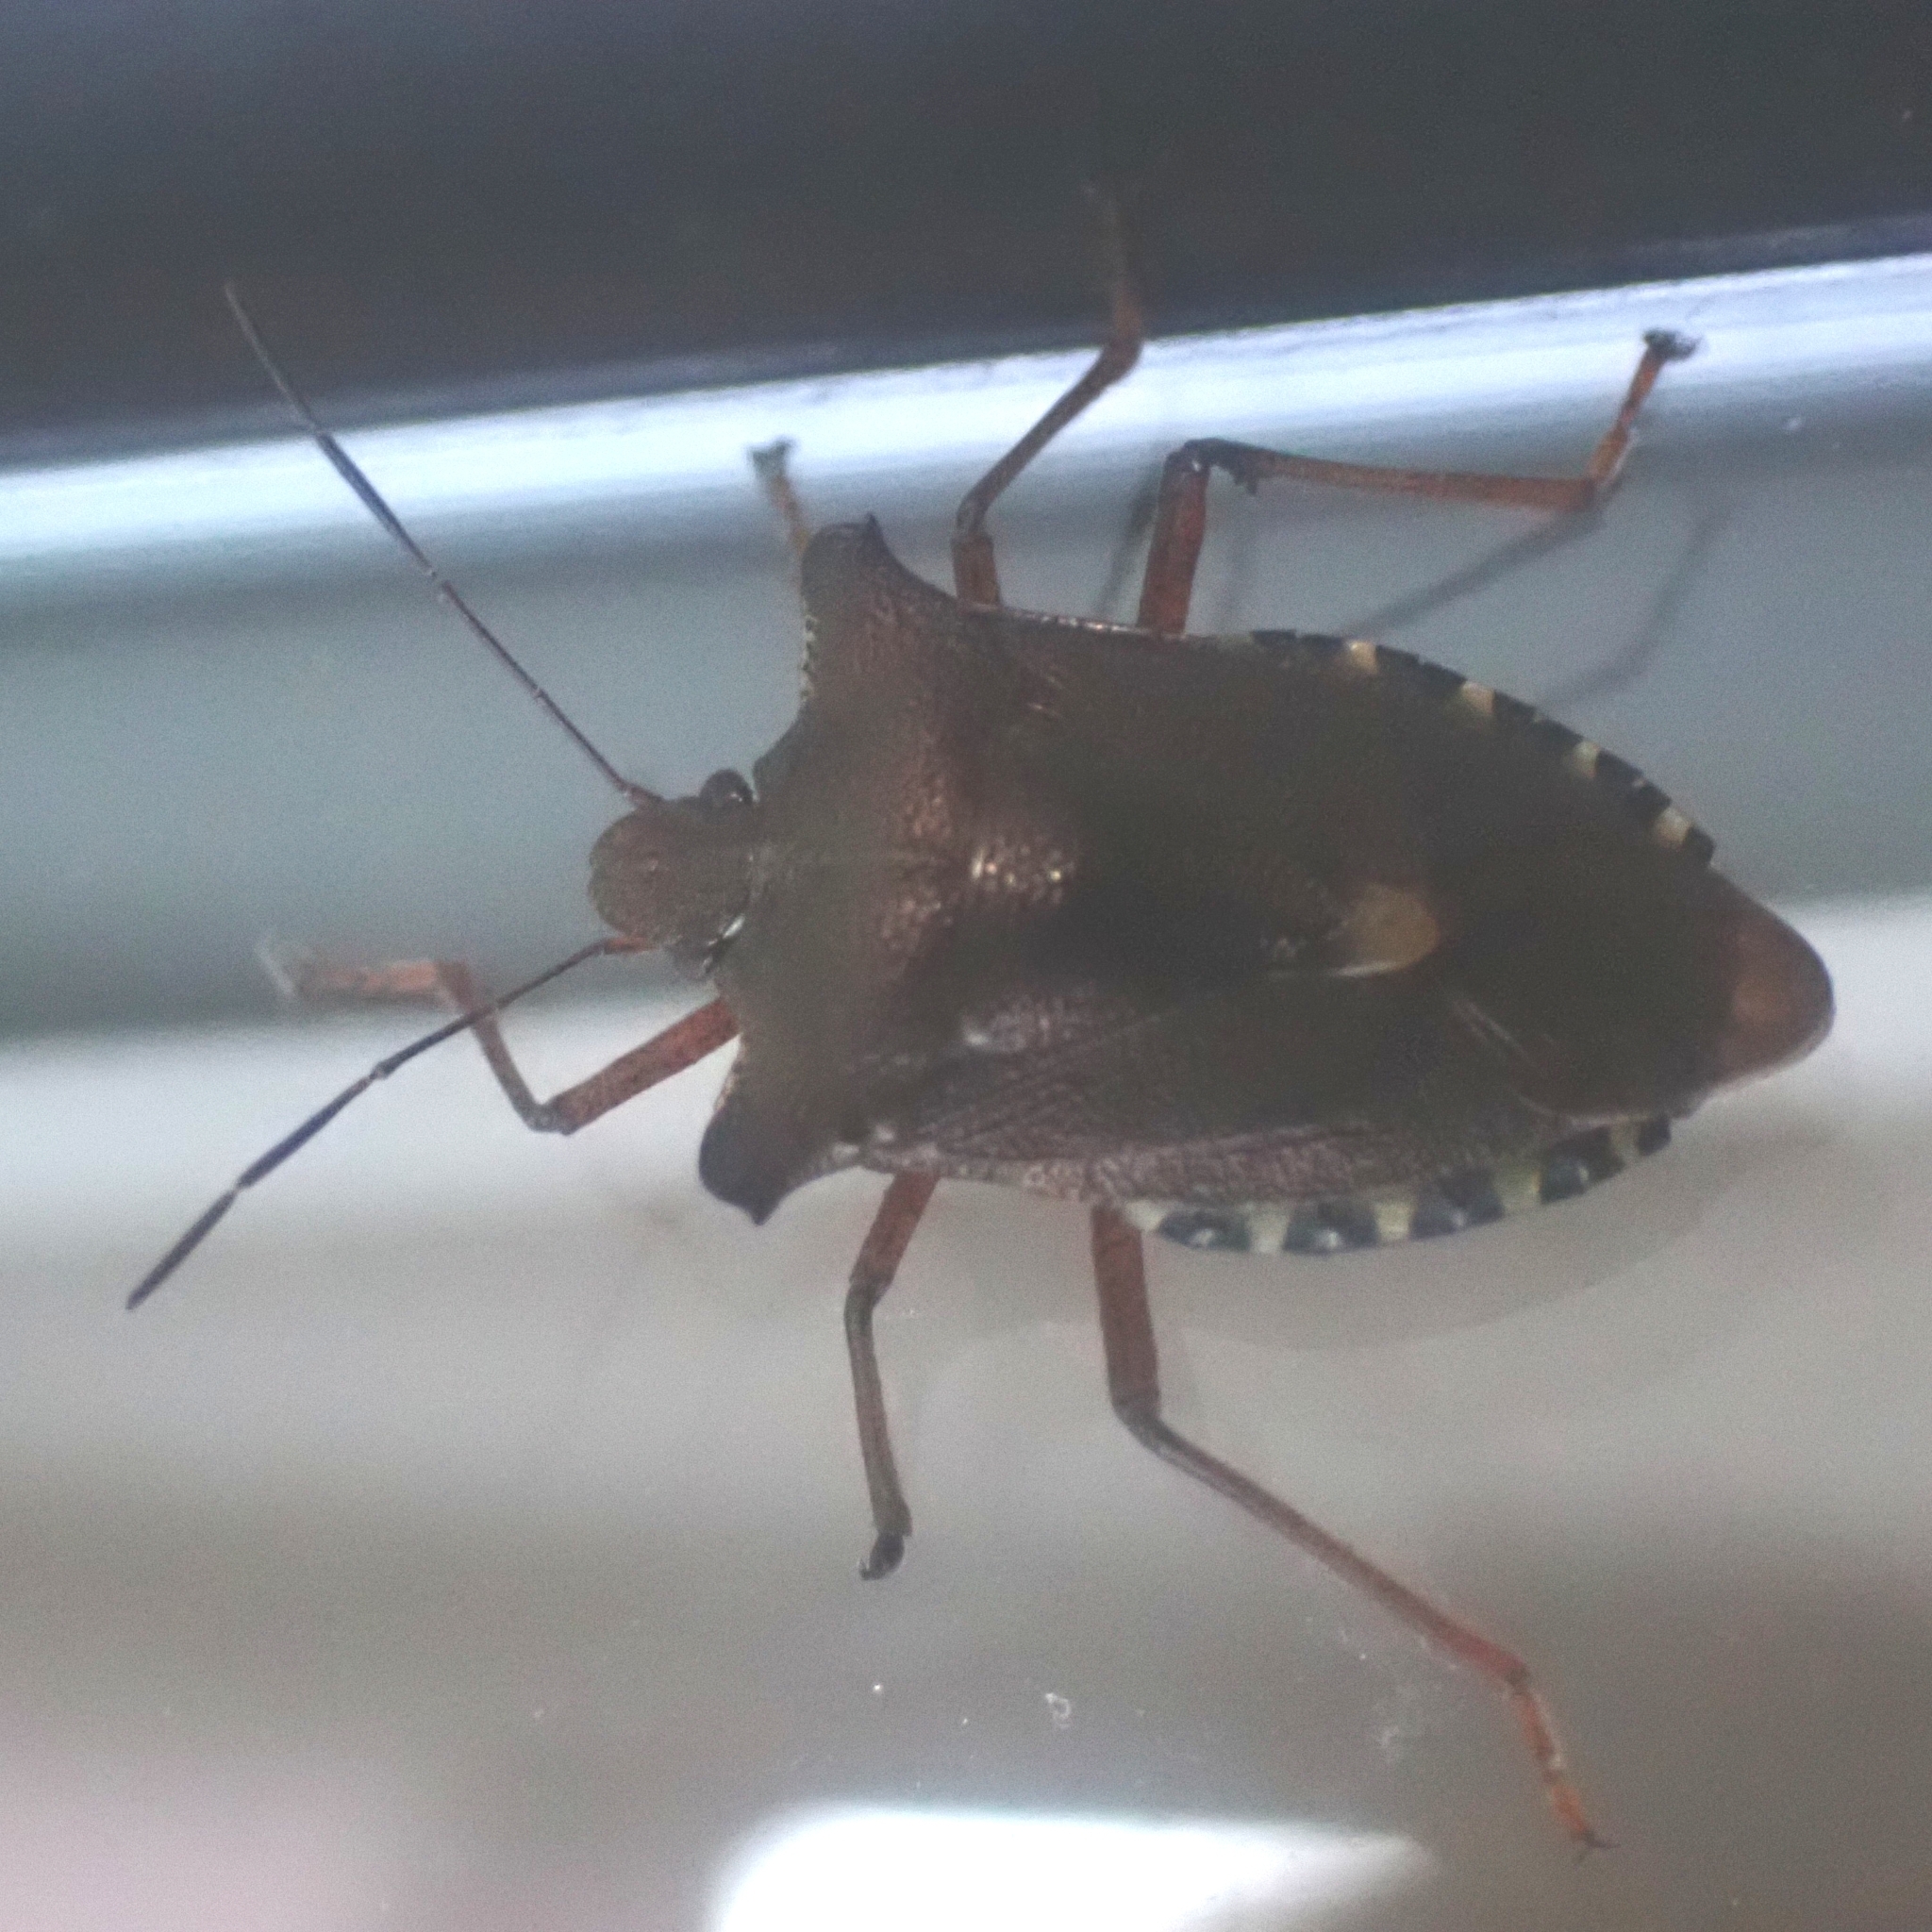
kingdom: Animalia
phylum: Arthropoda
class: Insecta
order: Hemiptera
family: Pentatomidae
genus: Pentatoma
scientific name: Pentatoma rufipes
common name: Forest bug
